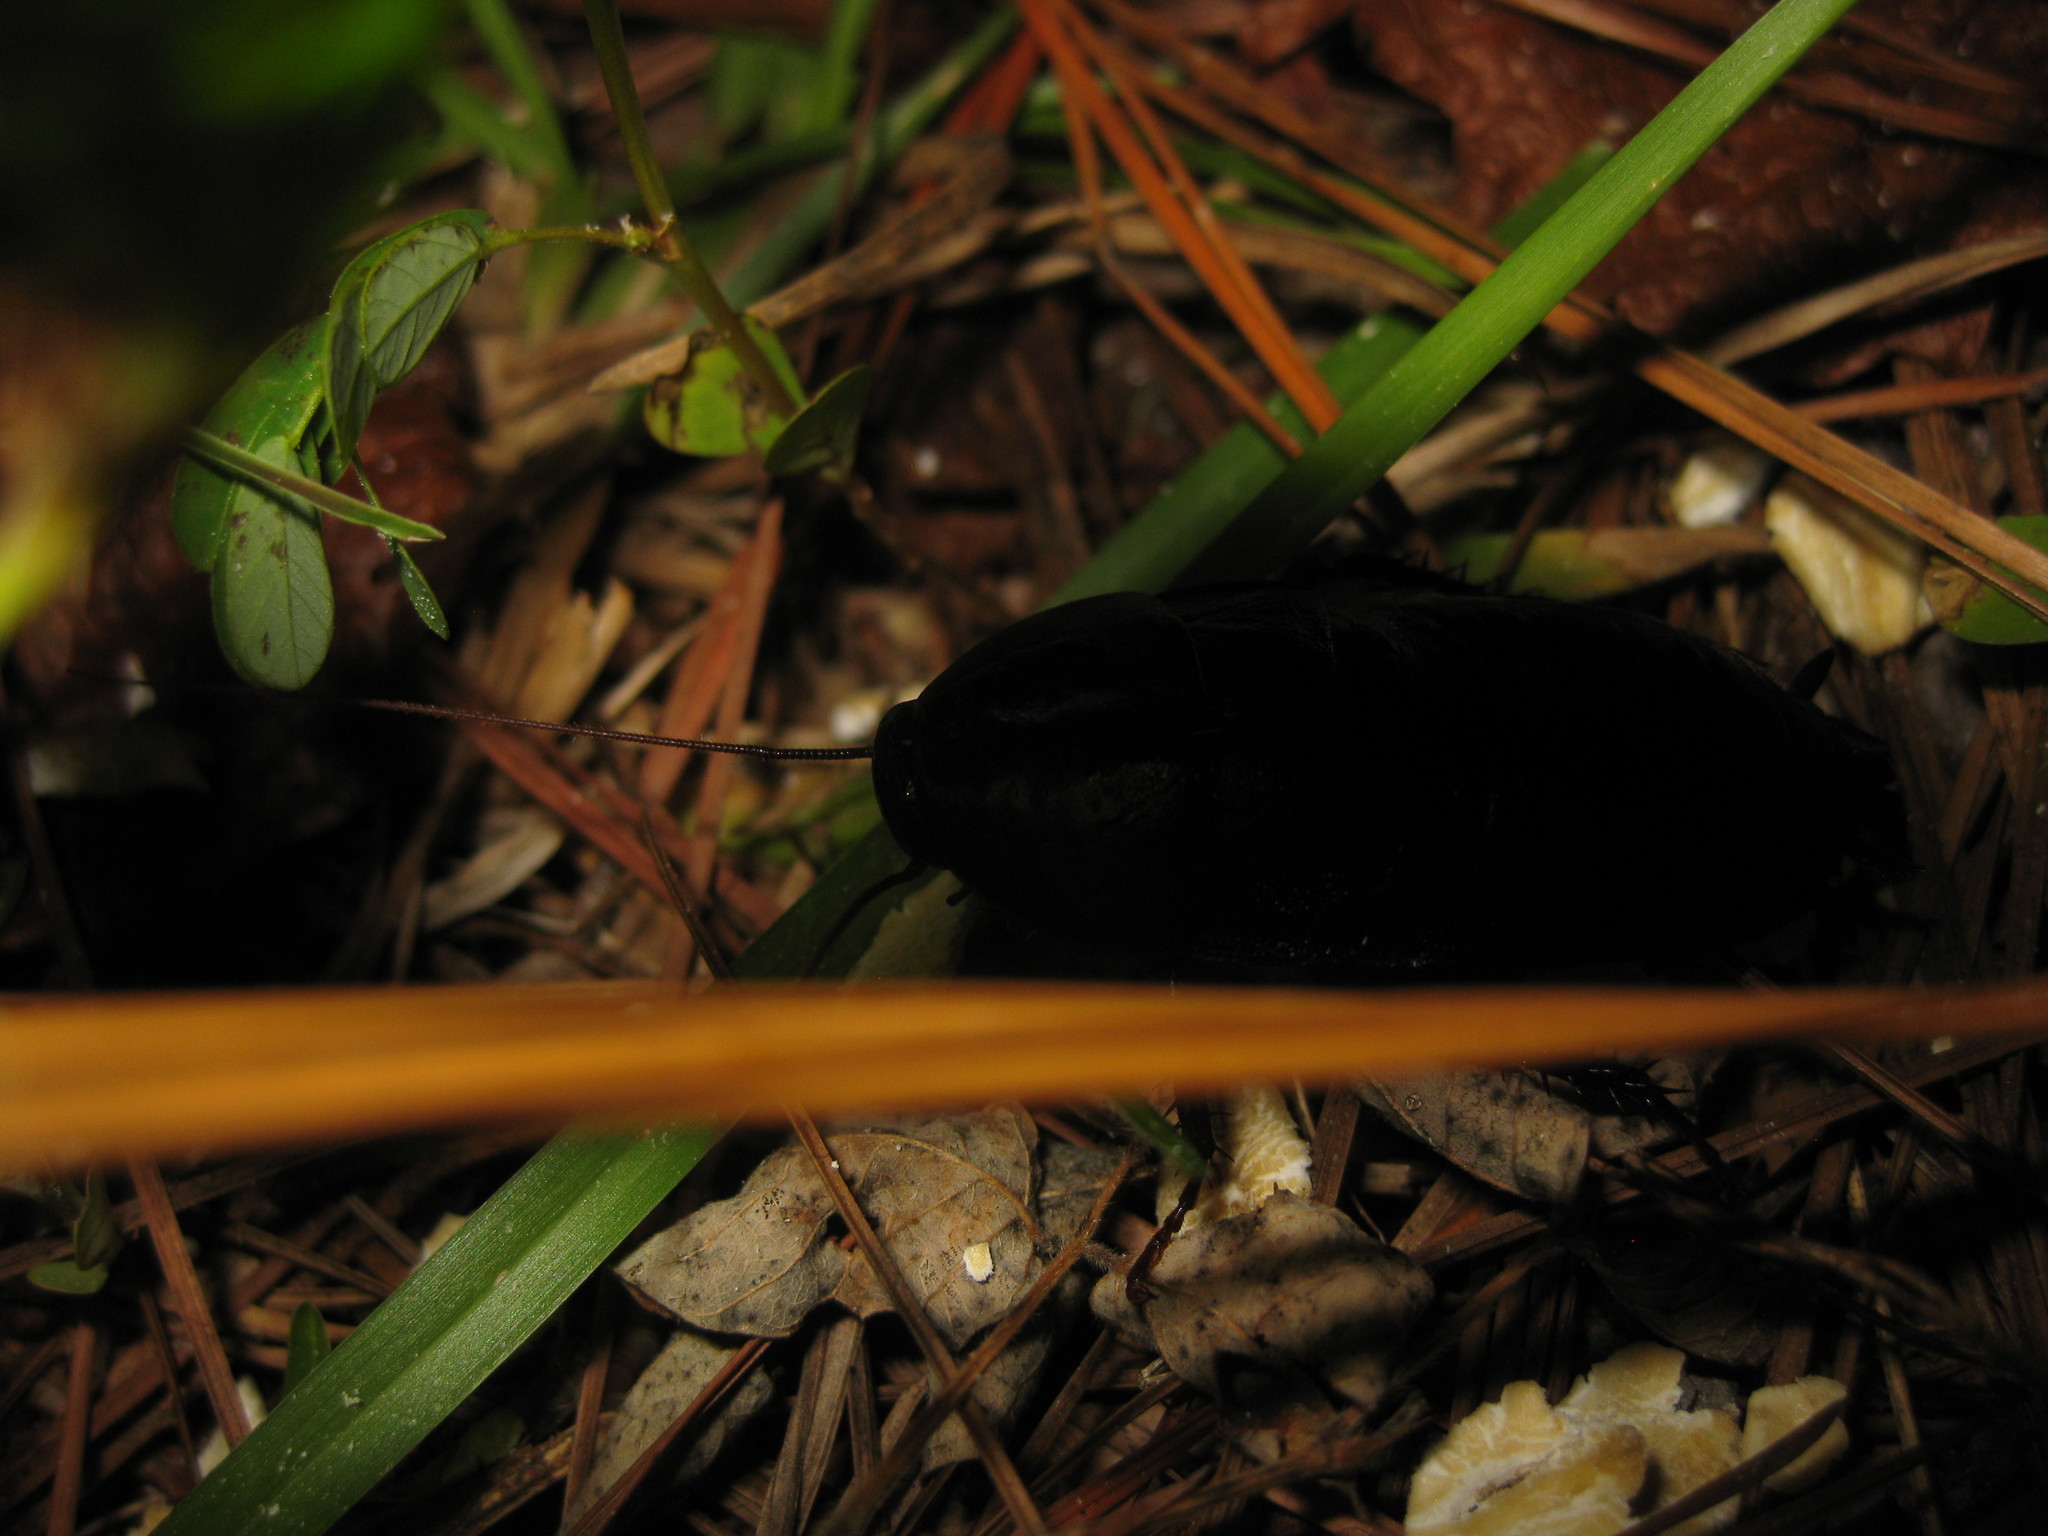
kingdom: Animalia
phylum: Arthropoda
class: Insecta
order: Blattodea
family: Blattidae
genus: Eurycotis
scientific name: Eurycotis floridana
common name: Florida cockroach
